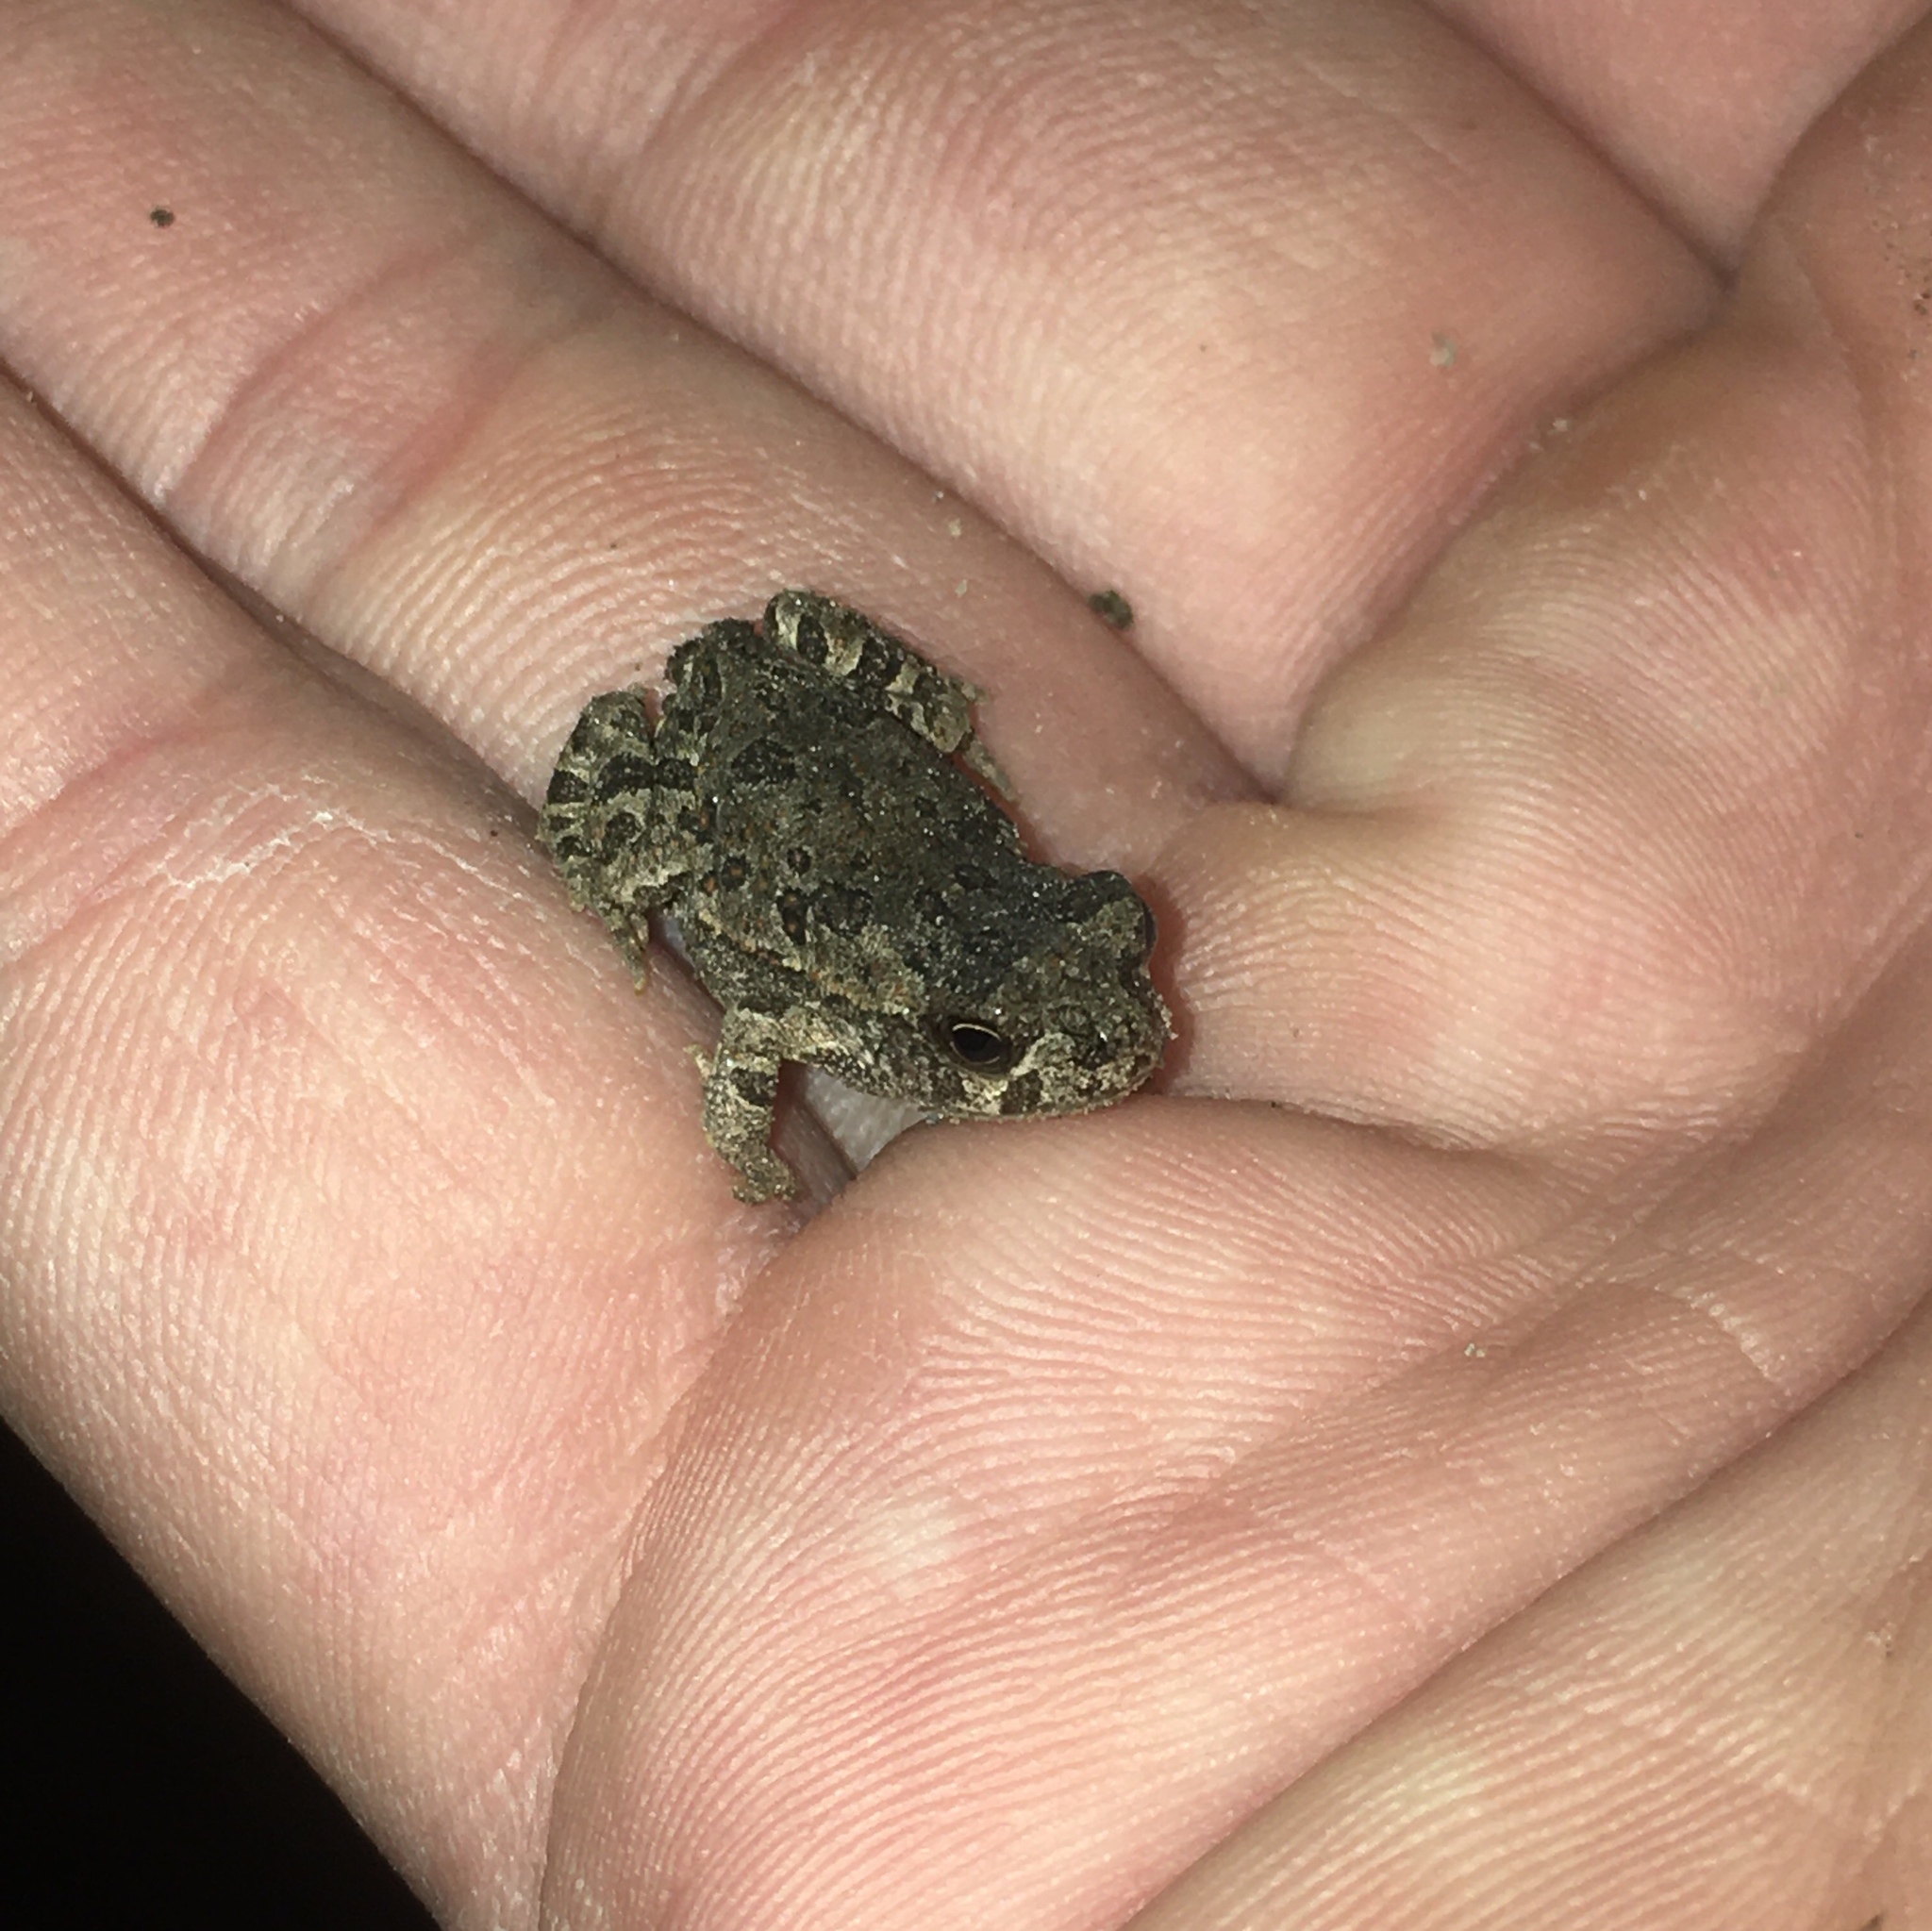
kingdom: Animalia
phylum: Chordata
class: Amphibia
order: Anura
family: Bufonidae
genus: Rhinella
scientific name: Rhinella arenarum
